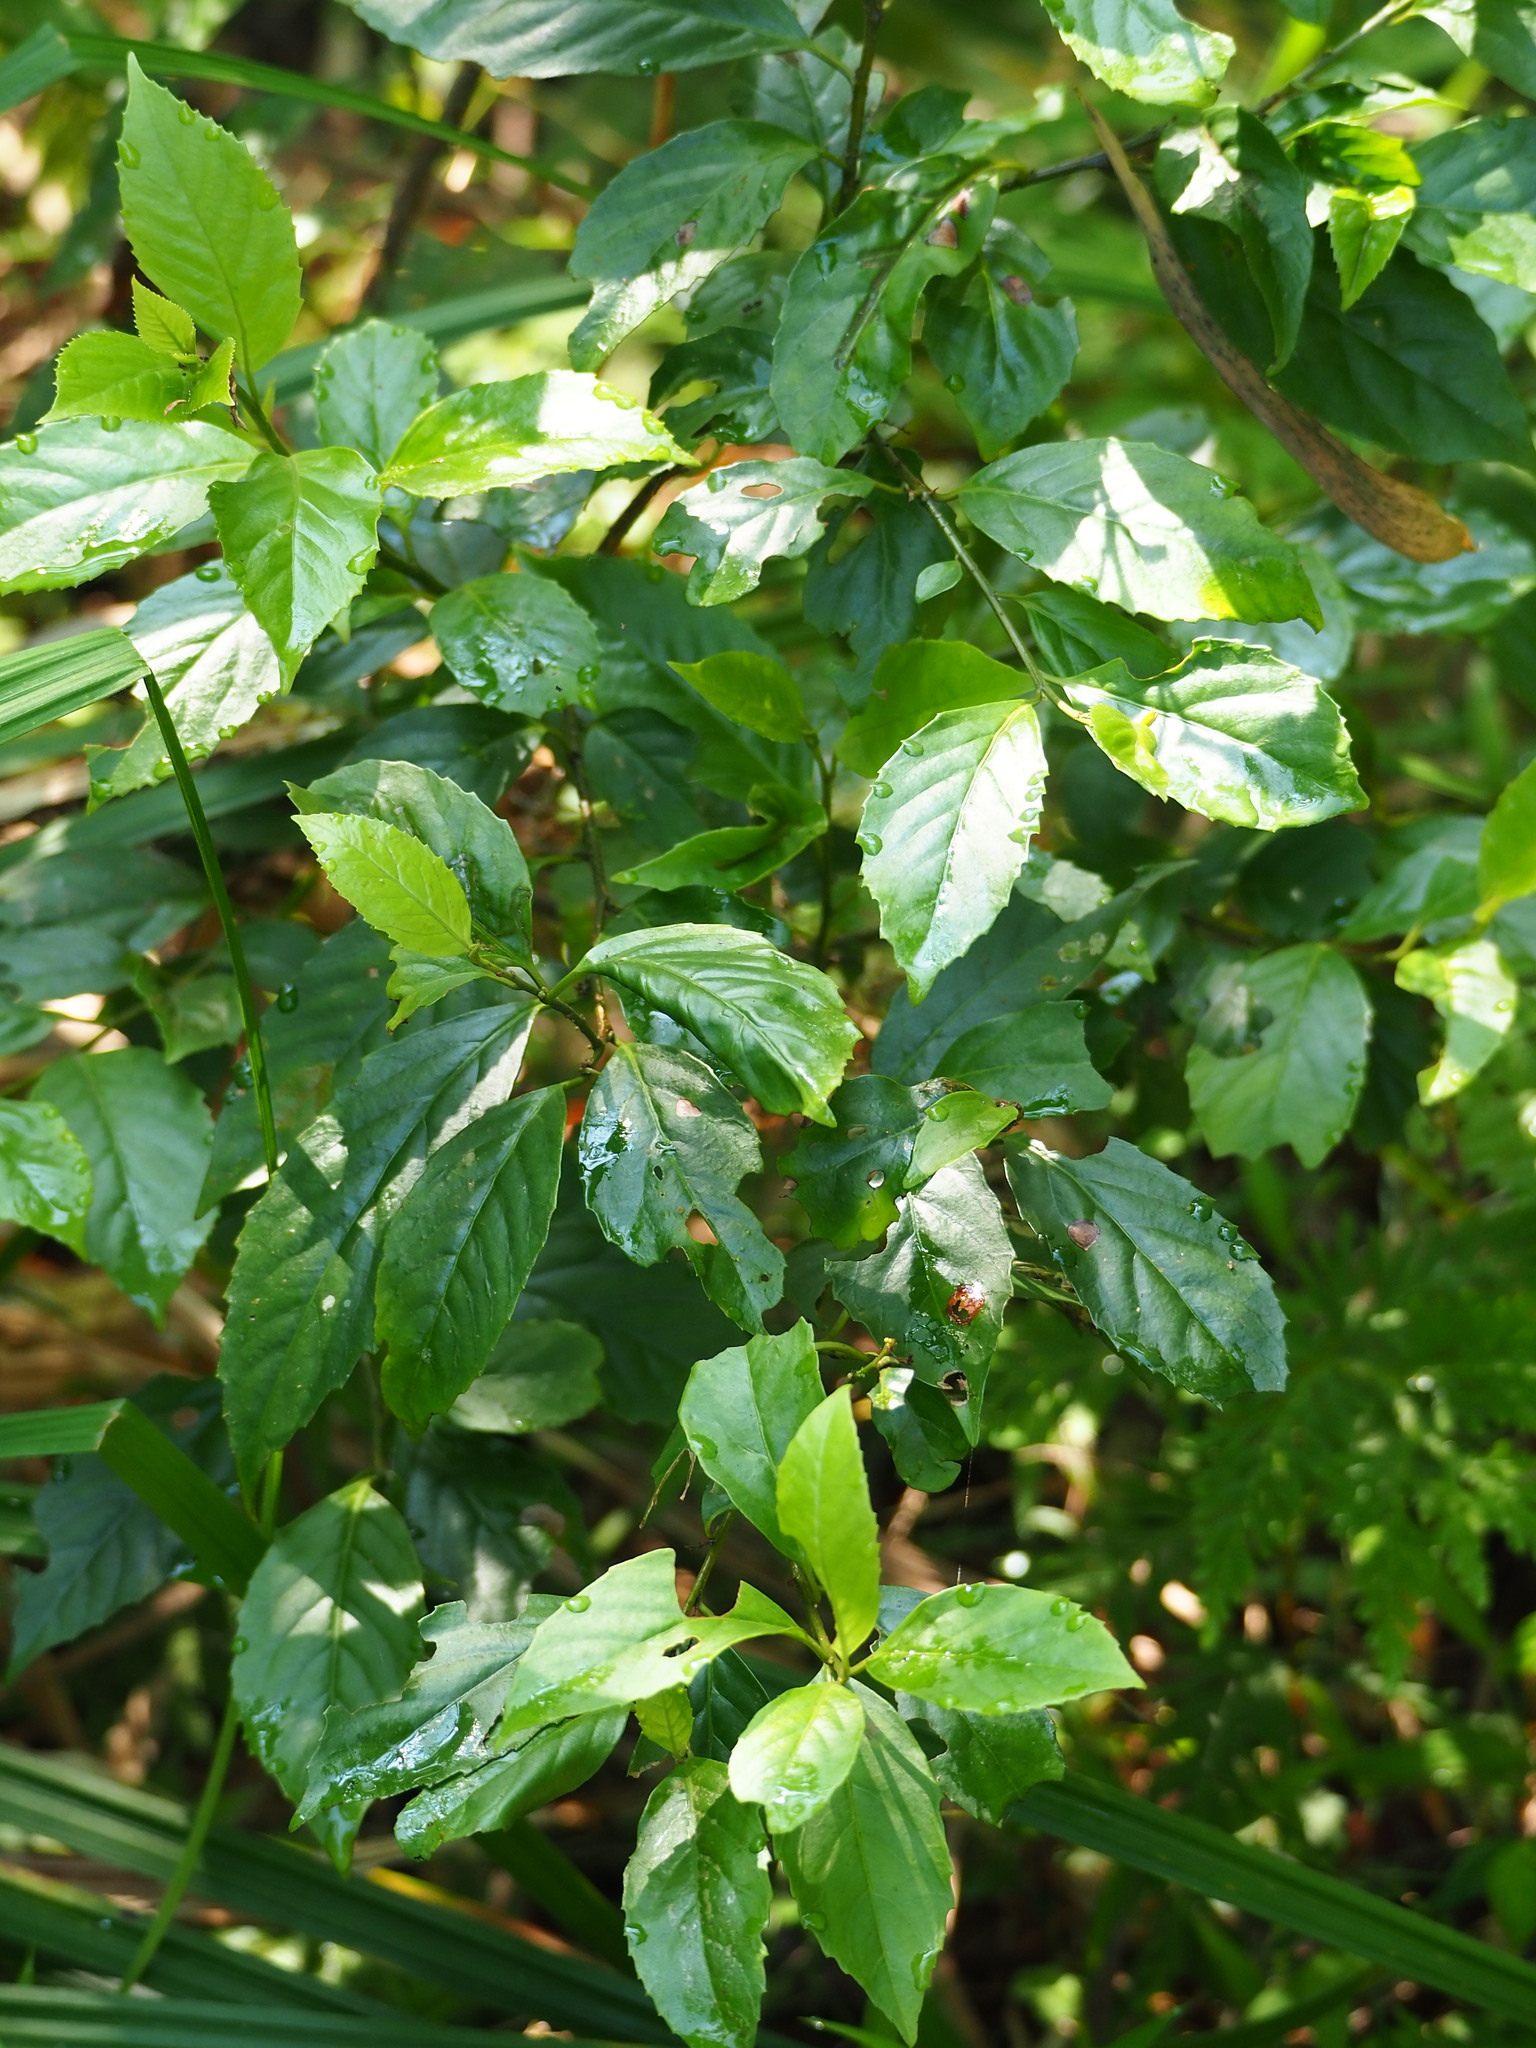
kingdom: Plantae
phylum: Tracheophyta
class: Magnoliopsida
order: Ericales
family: Primulaceae
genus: Maesa
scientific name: Maesa perlaria
